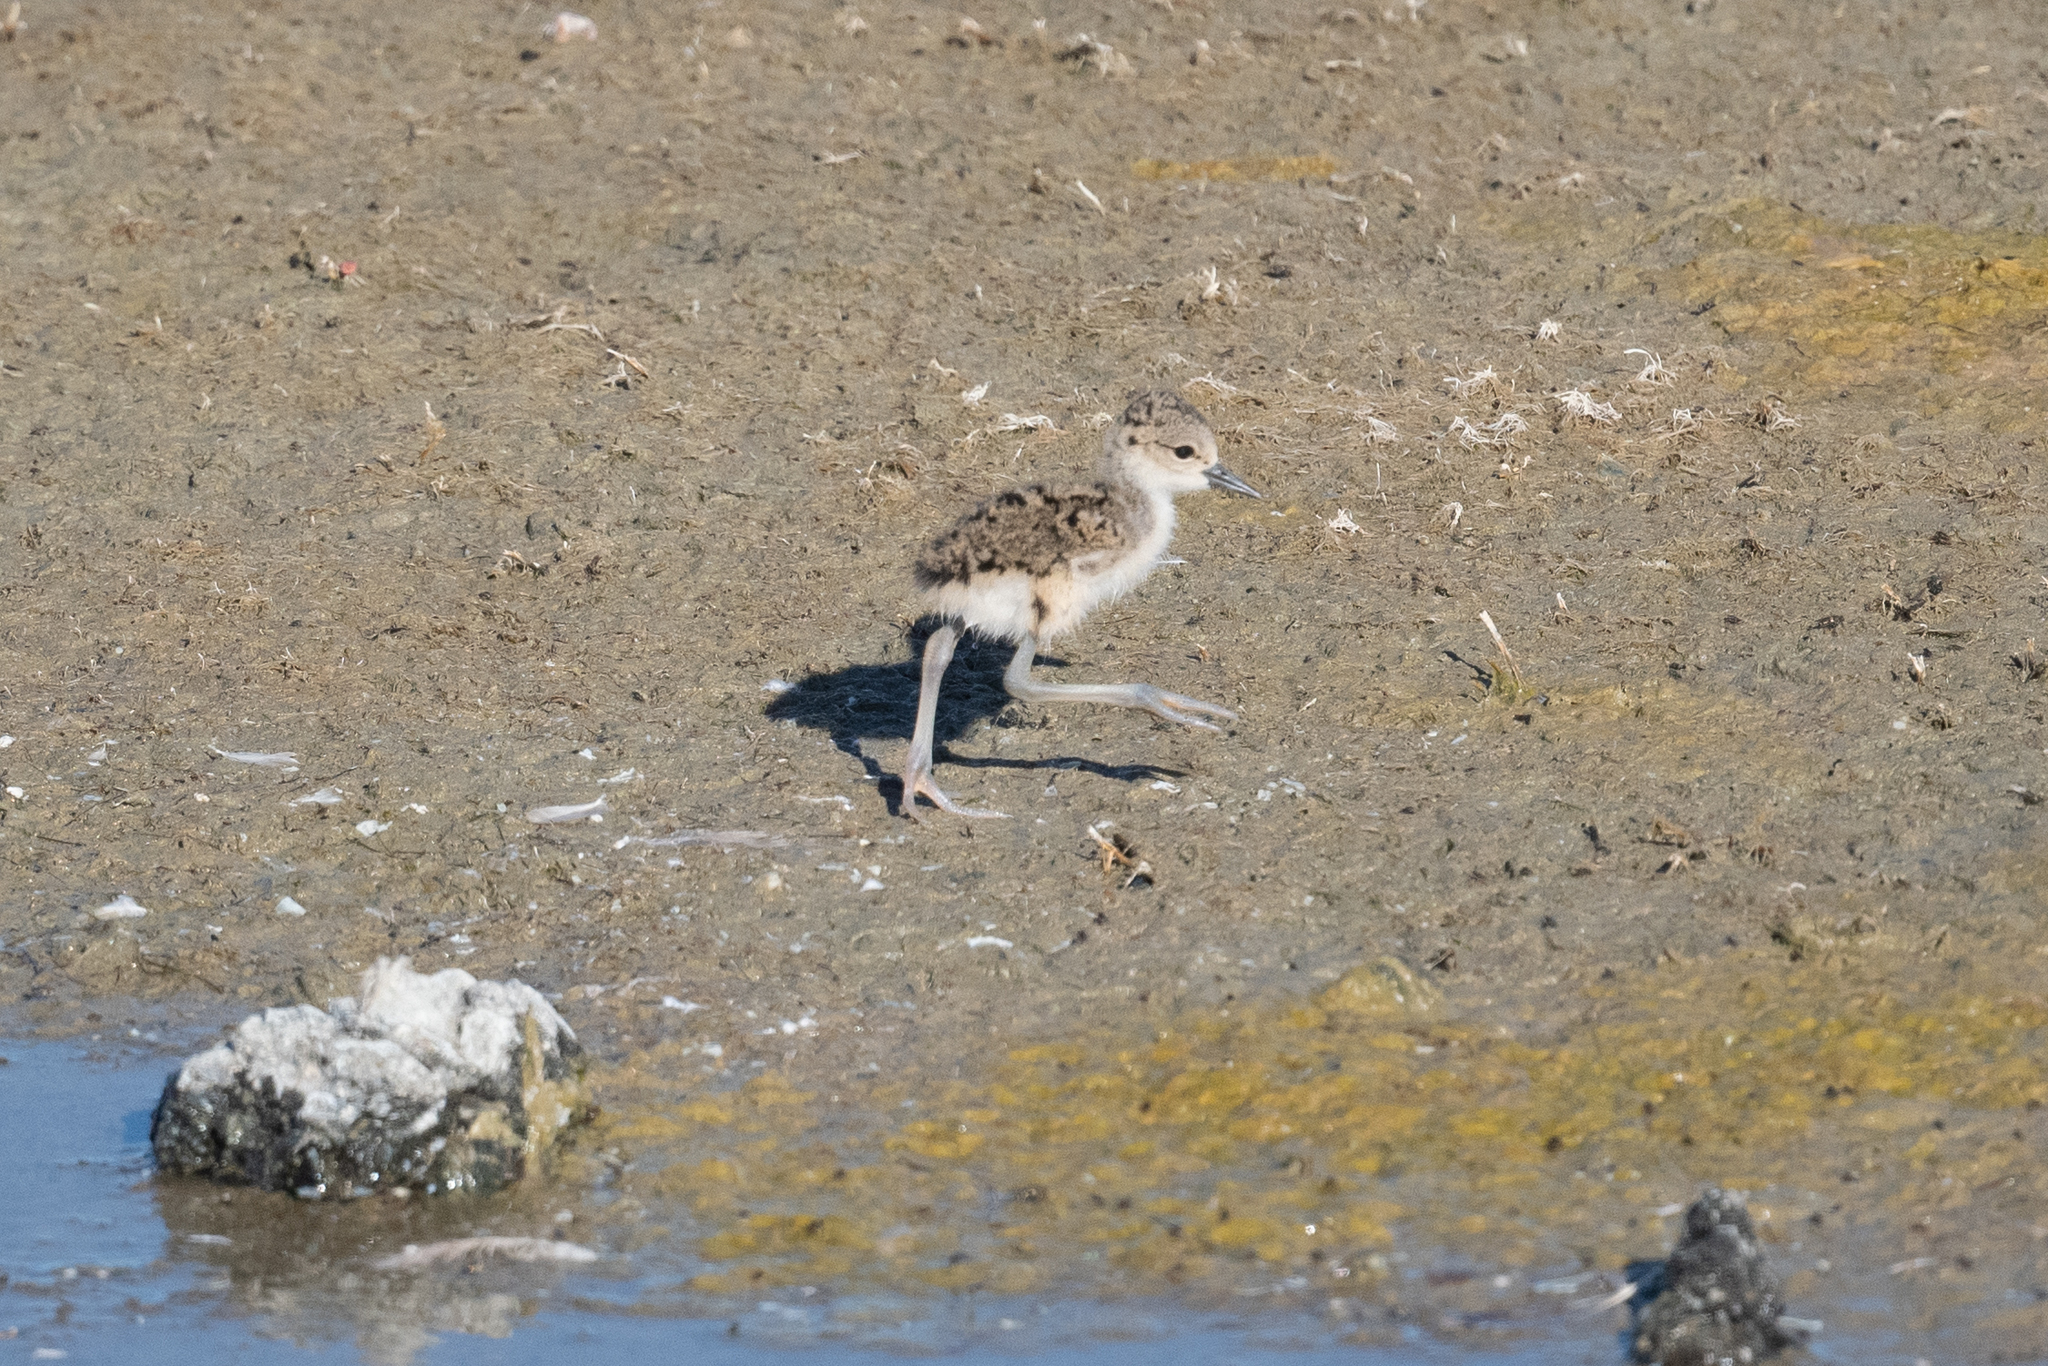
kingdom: Animalia
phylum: Chordata
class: Aves
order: Charadriiformes
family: Recurvirostridae
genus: Himantopus
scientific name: Himantopus mexicanus
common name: Black-necked stilt
